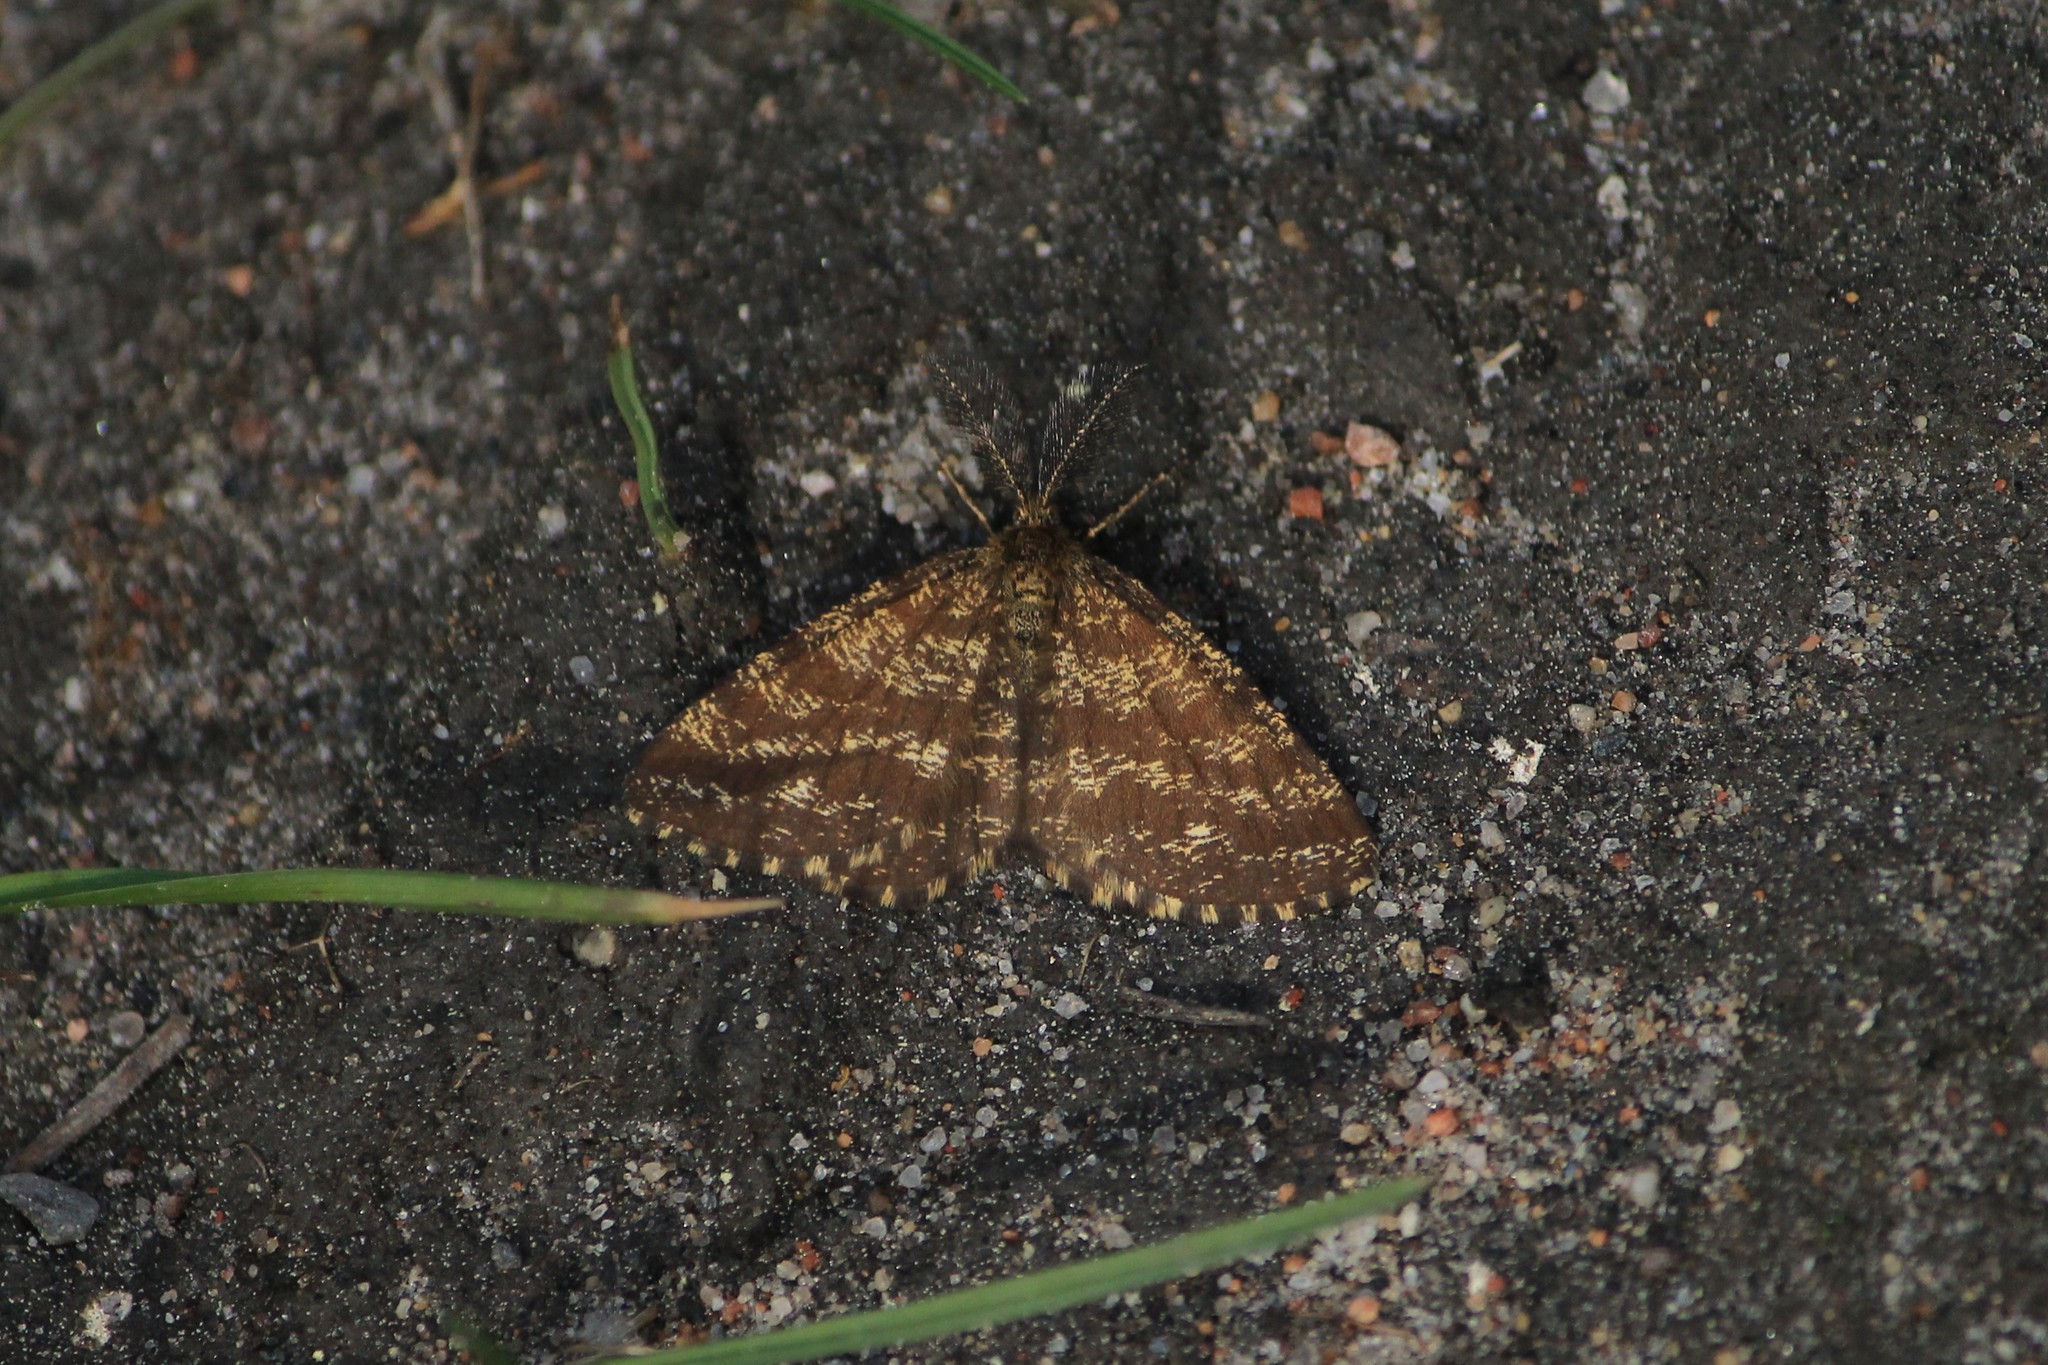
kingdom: Animalia
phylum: Arthropoda
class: Insecta
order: Lepidoptera
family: Geometridae
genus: Ematurga
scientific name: Ematurga atomaria
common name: Common heath
